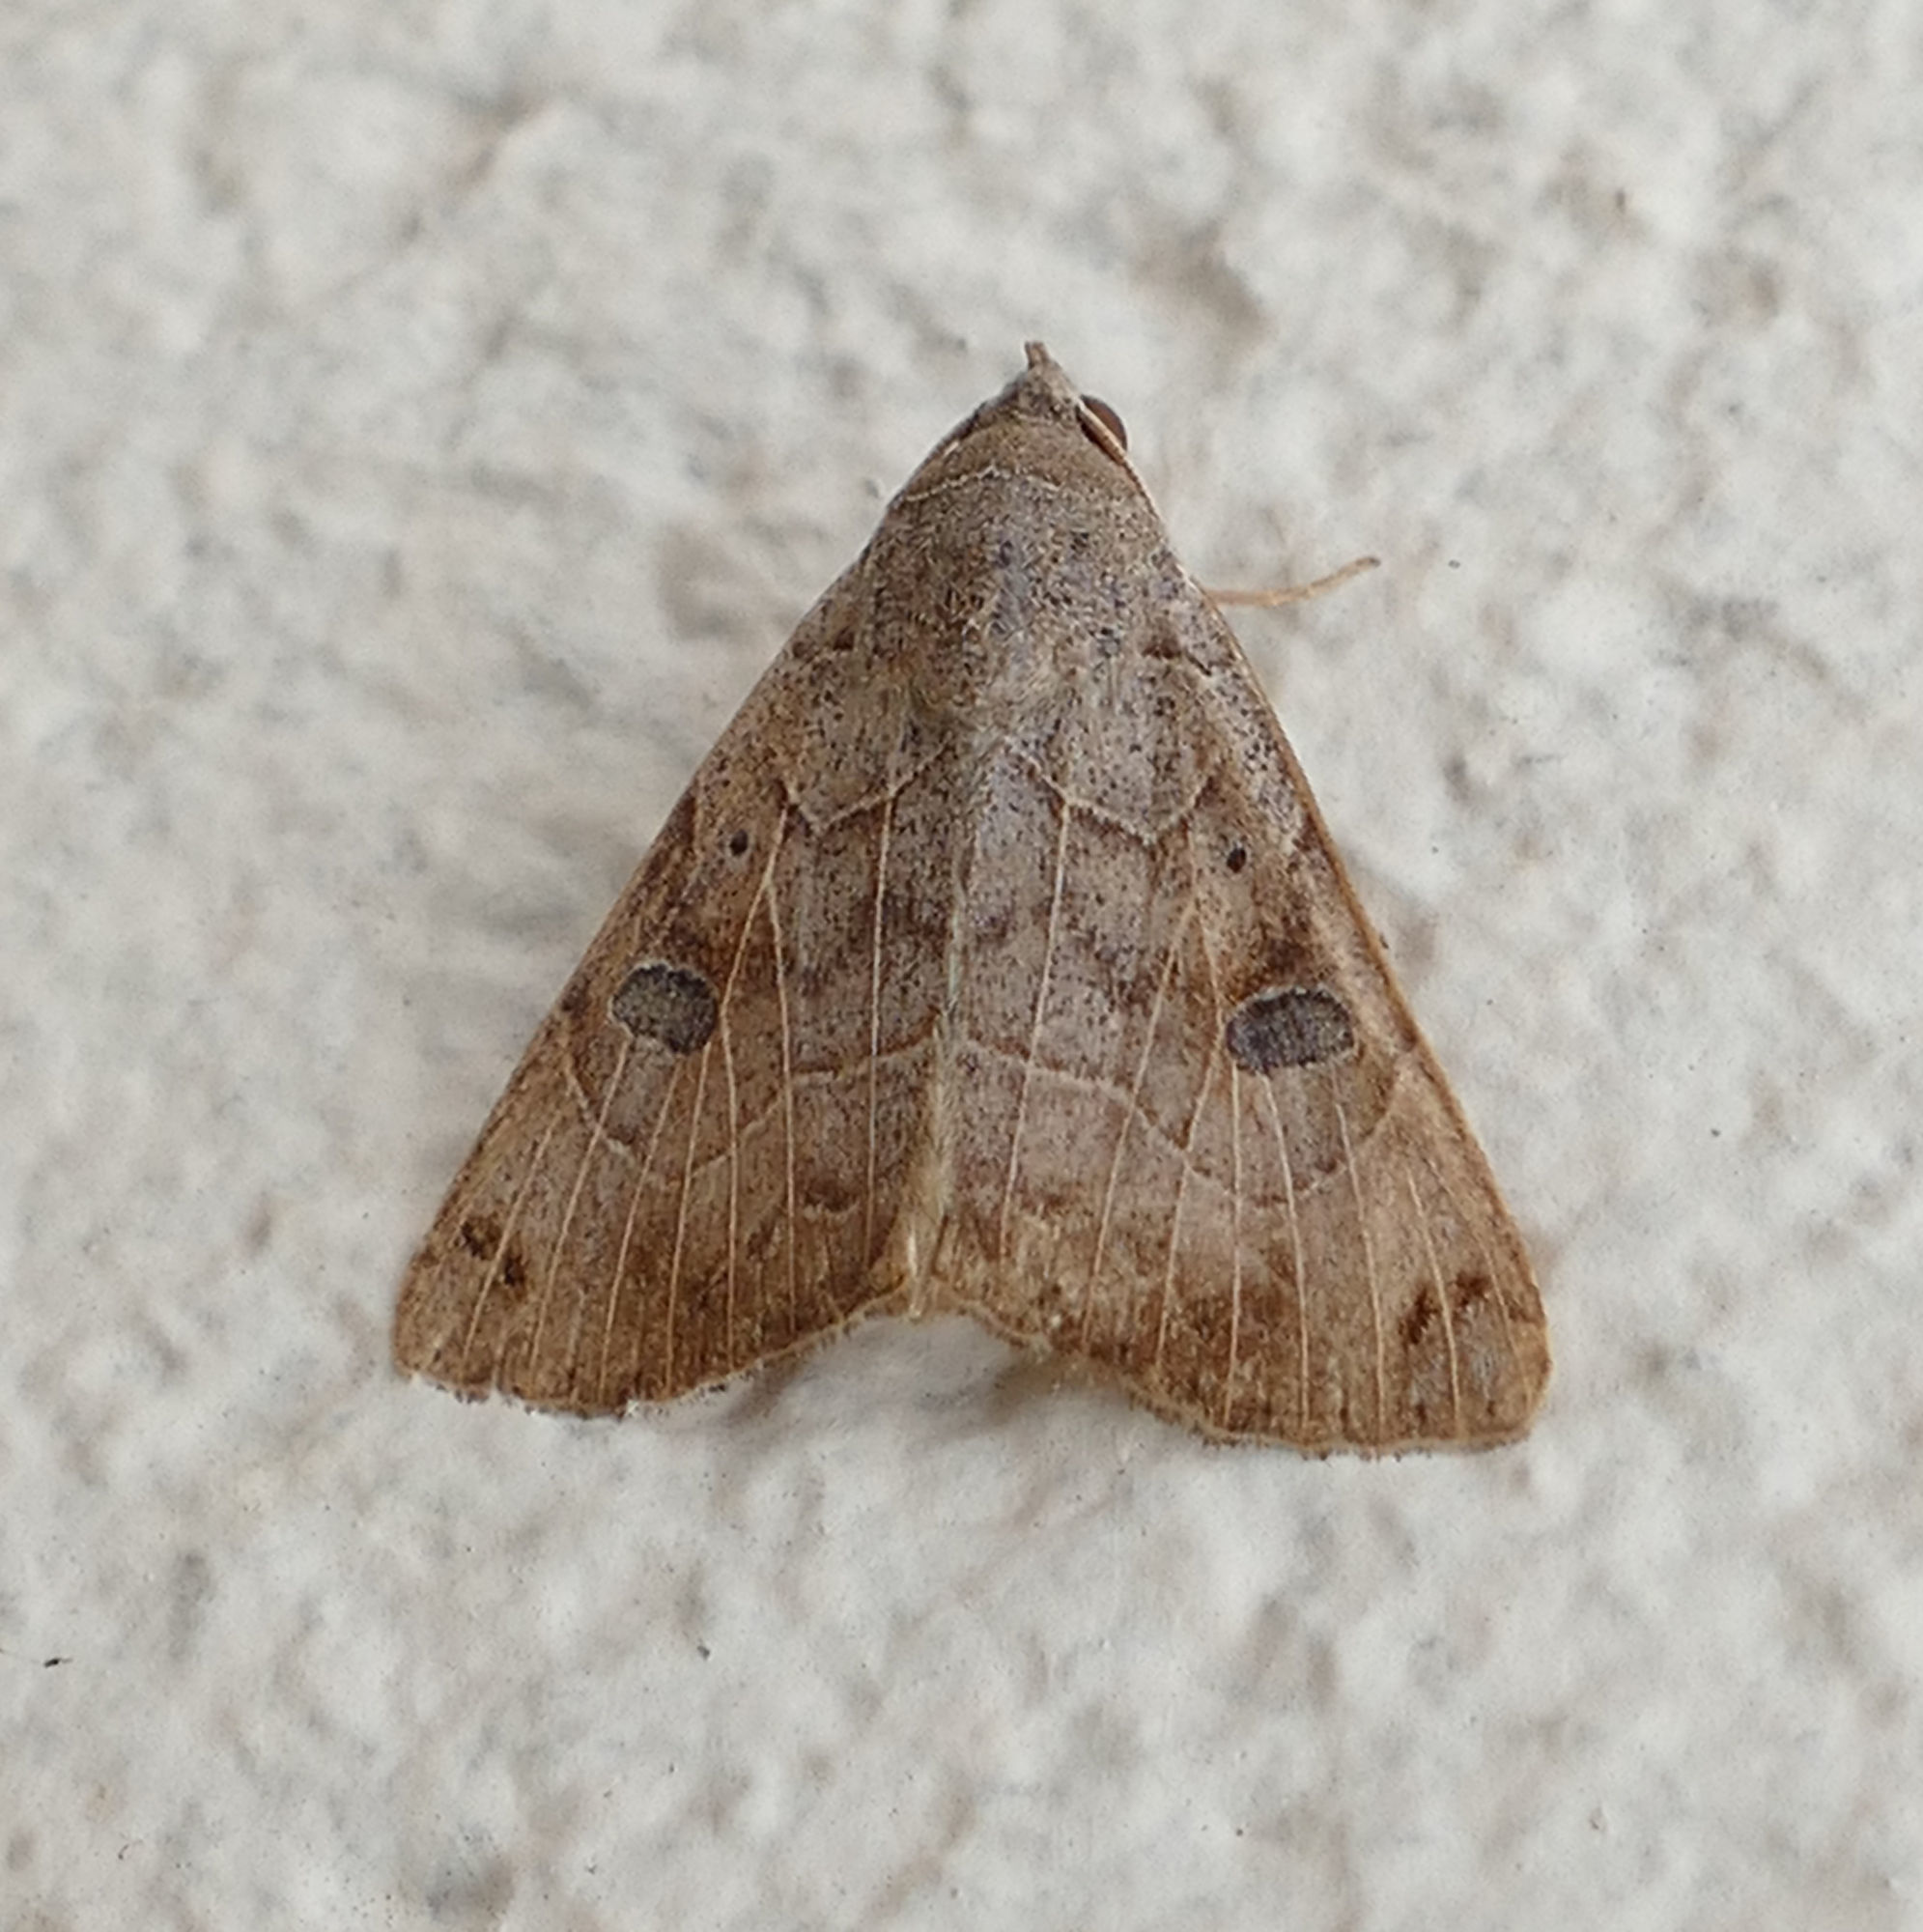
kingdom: Animalia
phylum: Arthropoda
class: Insecta
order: Lepidoptera
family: Erebidae
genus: Isogona
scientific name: Isogona scindens
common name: Owlet moth
